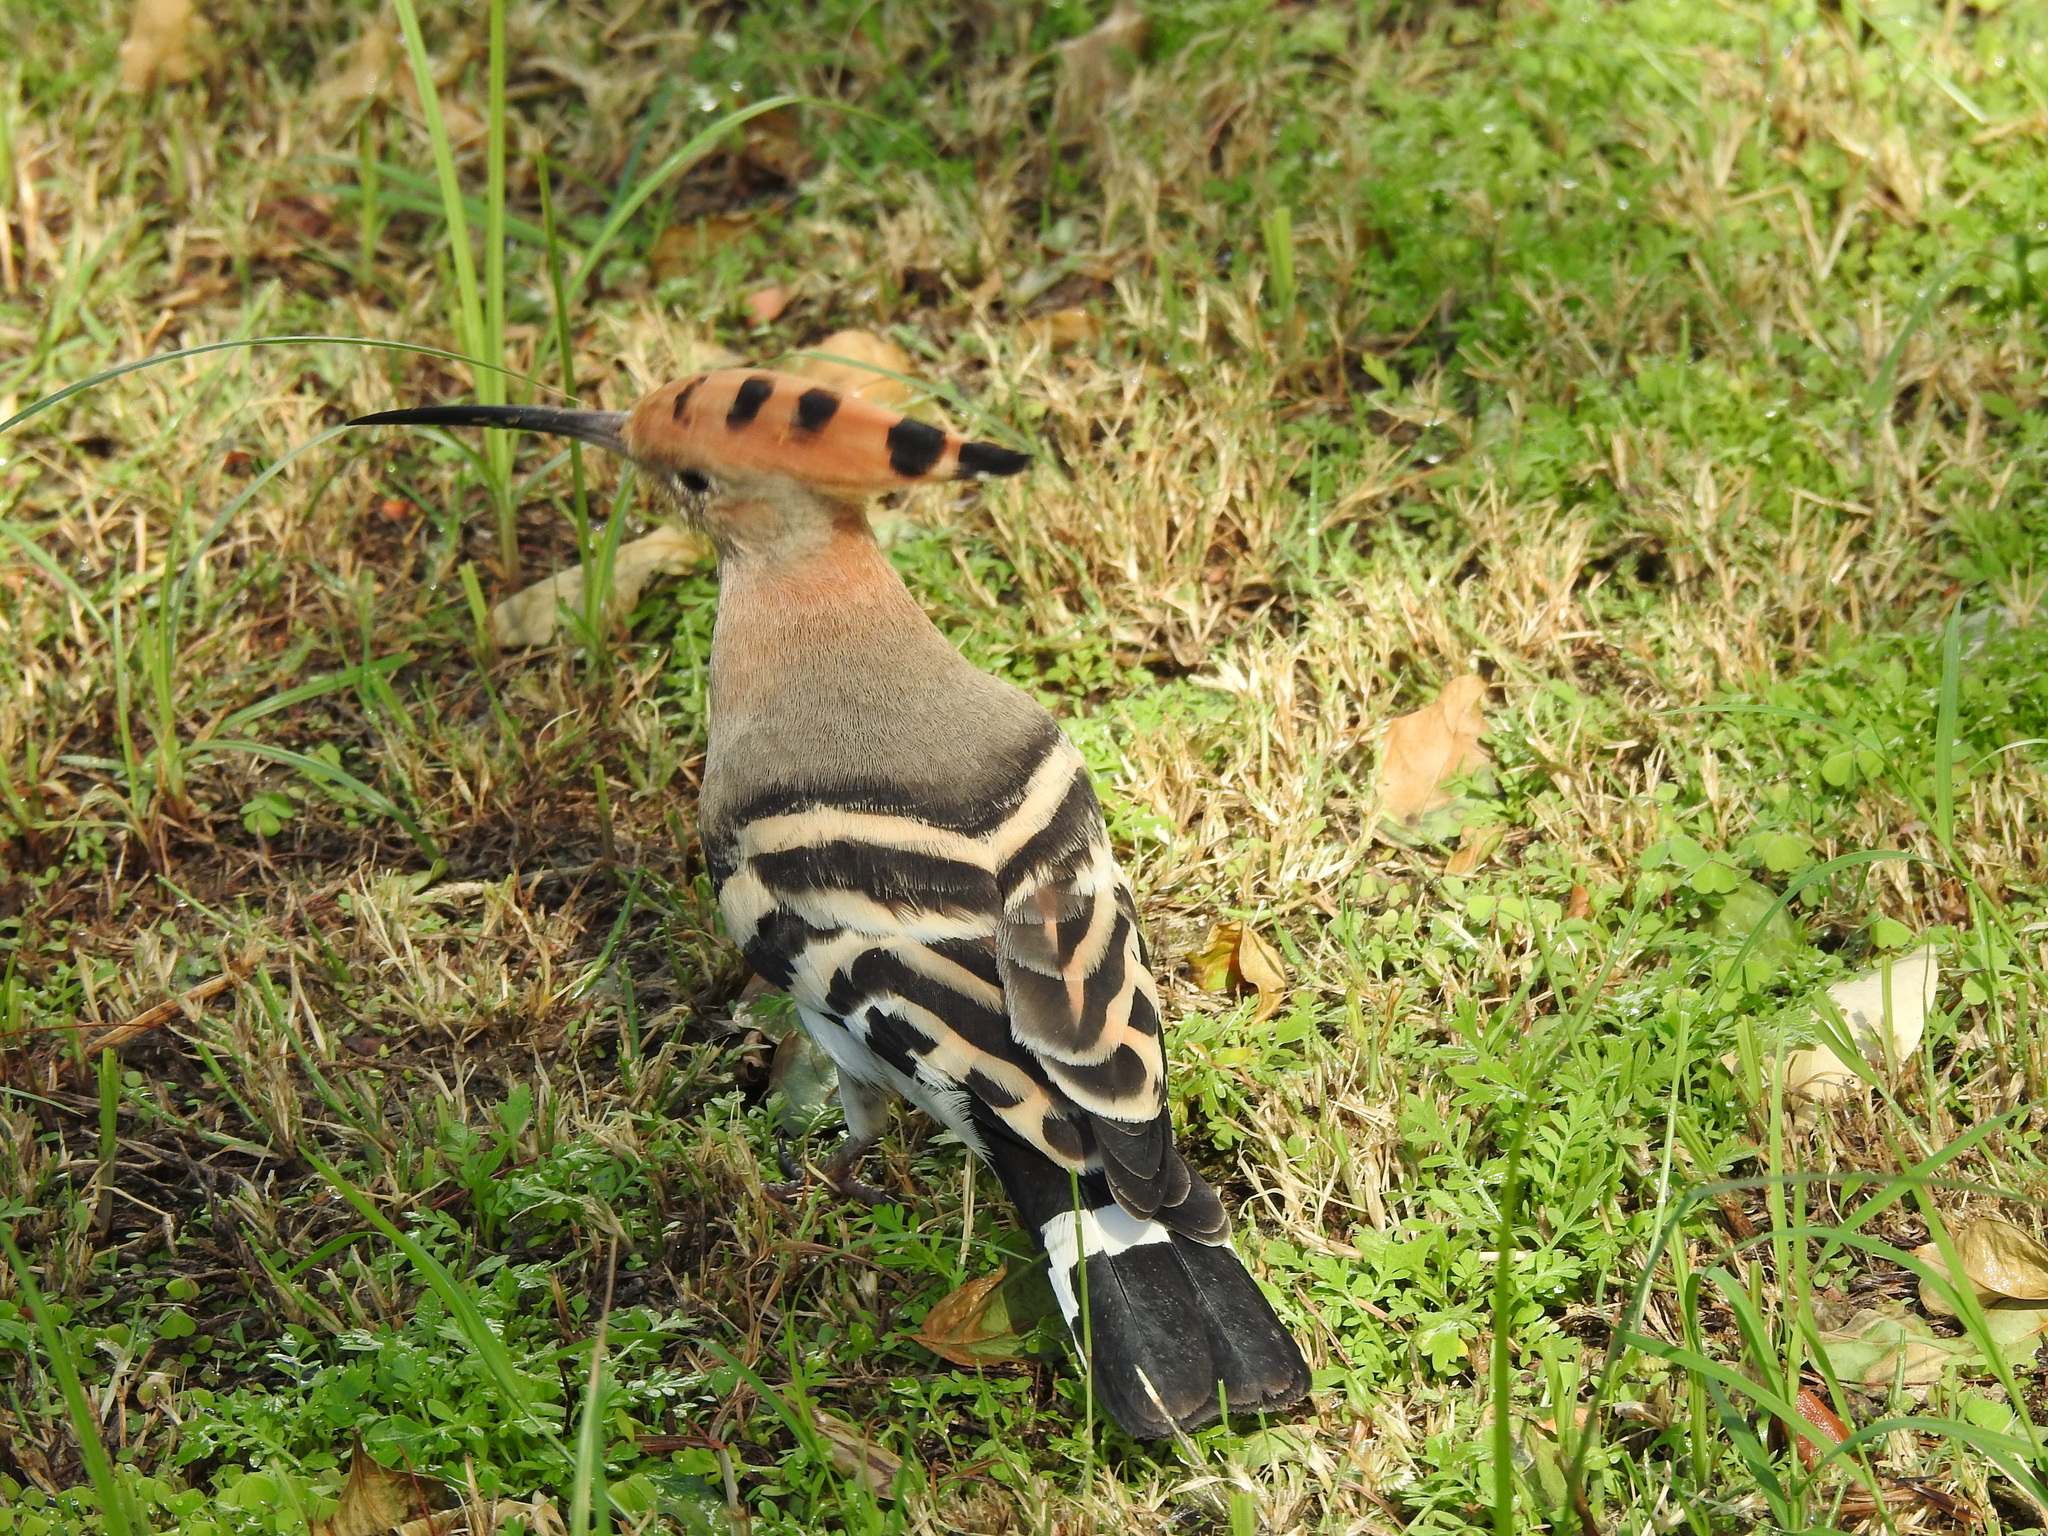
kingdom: Animalia
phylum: Chordata
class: Aves
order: Bucerotiformes
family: Upupidae
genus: Upupa
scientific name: Upupa epops
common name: Eurasian hoopoe
